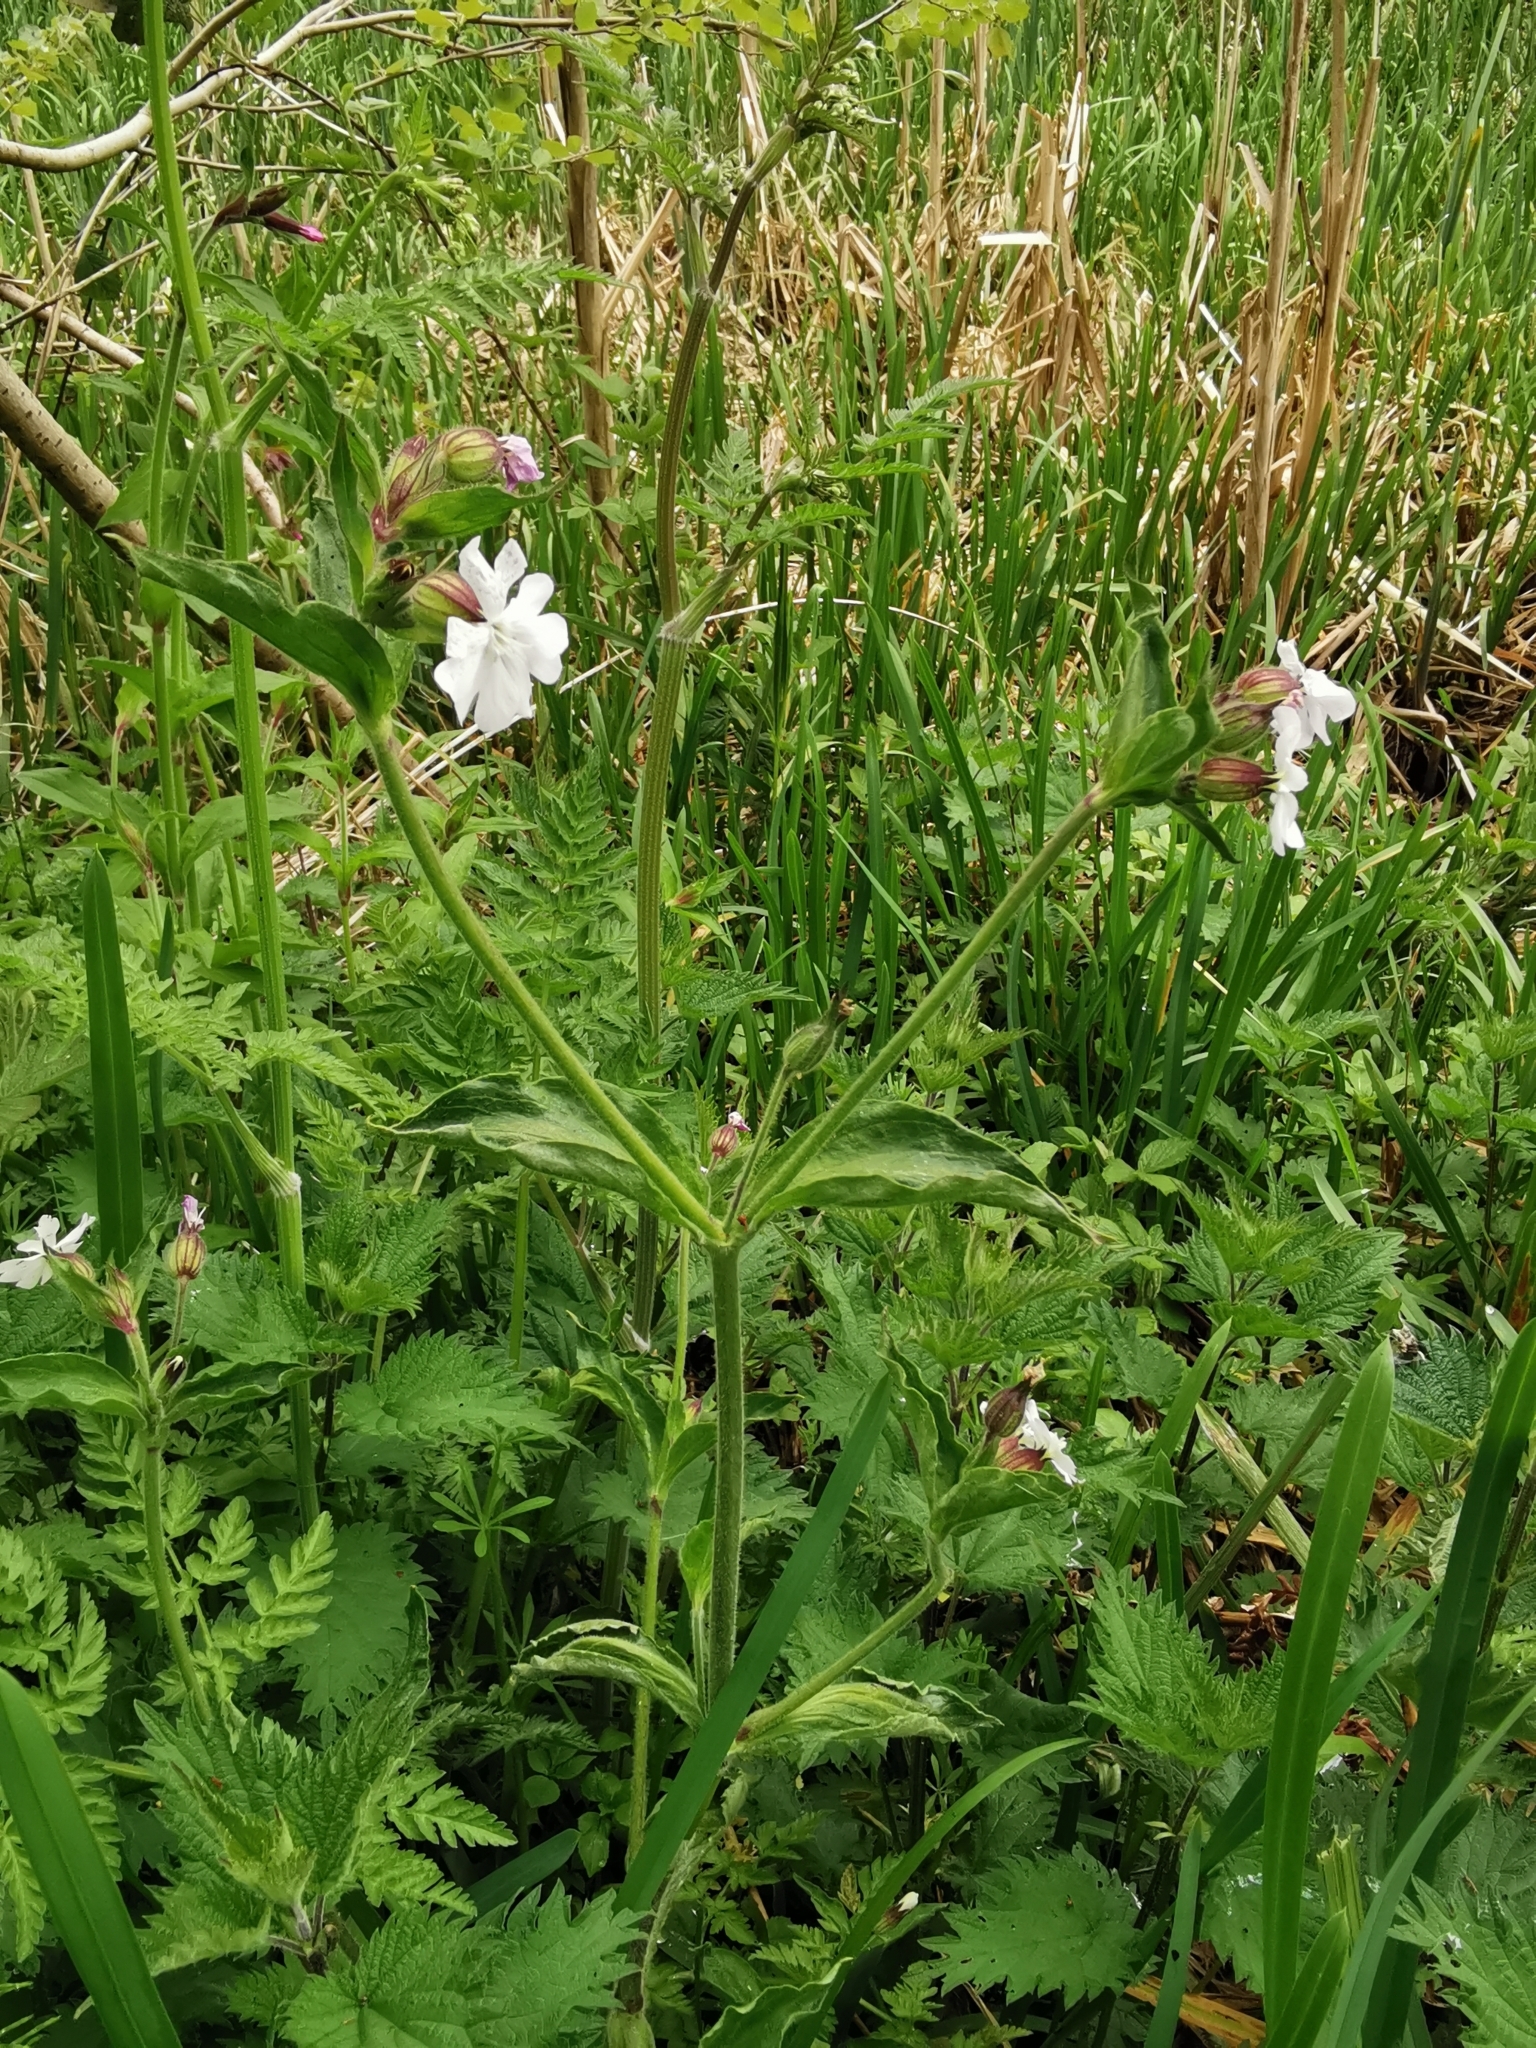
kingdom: Plantae
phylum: Tracheophyta
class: Magnoliopsida
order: Caryophyllales
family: Caryophyllaceae
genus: Silene
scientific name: Silene dioica
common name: Red campion
